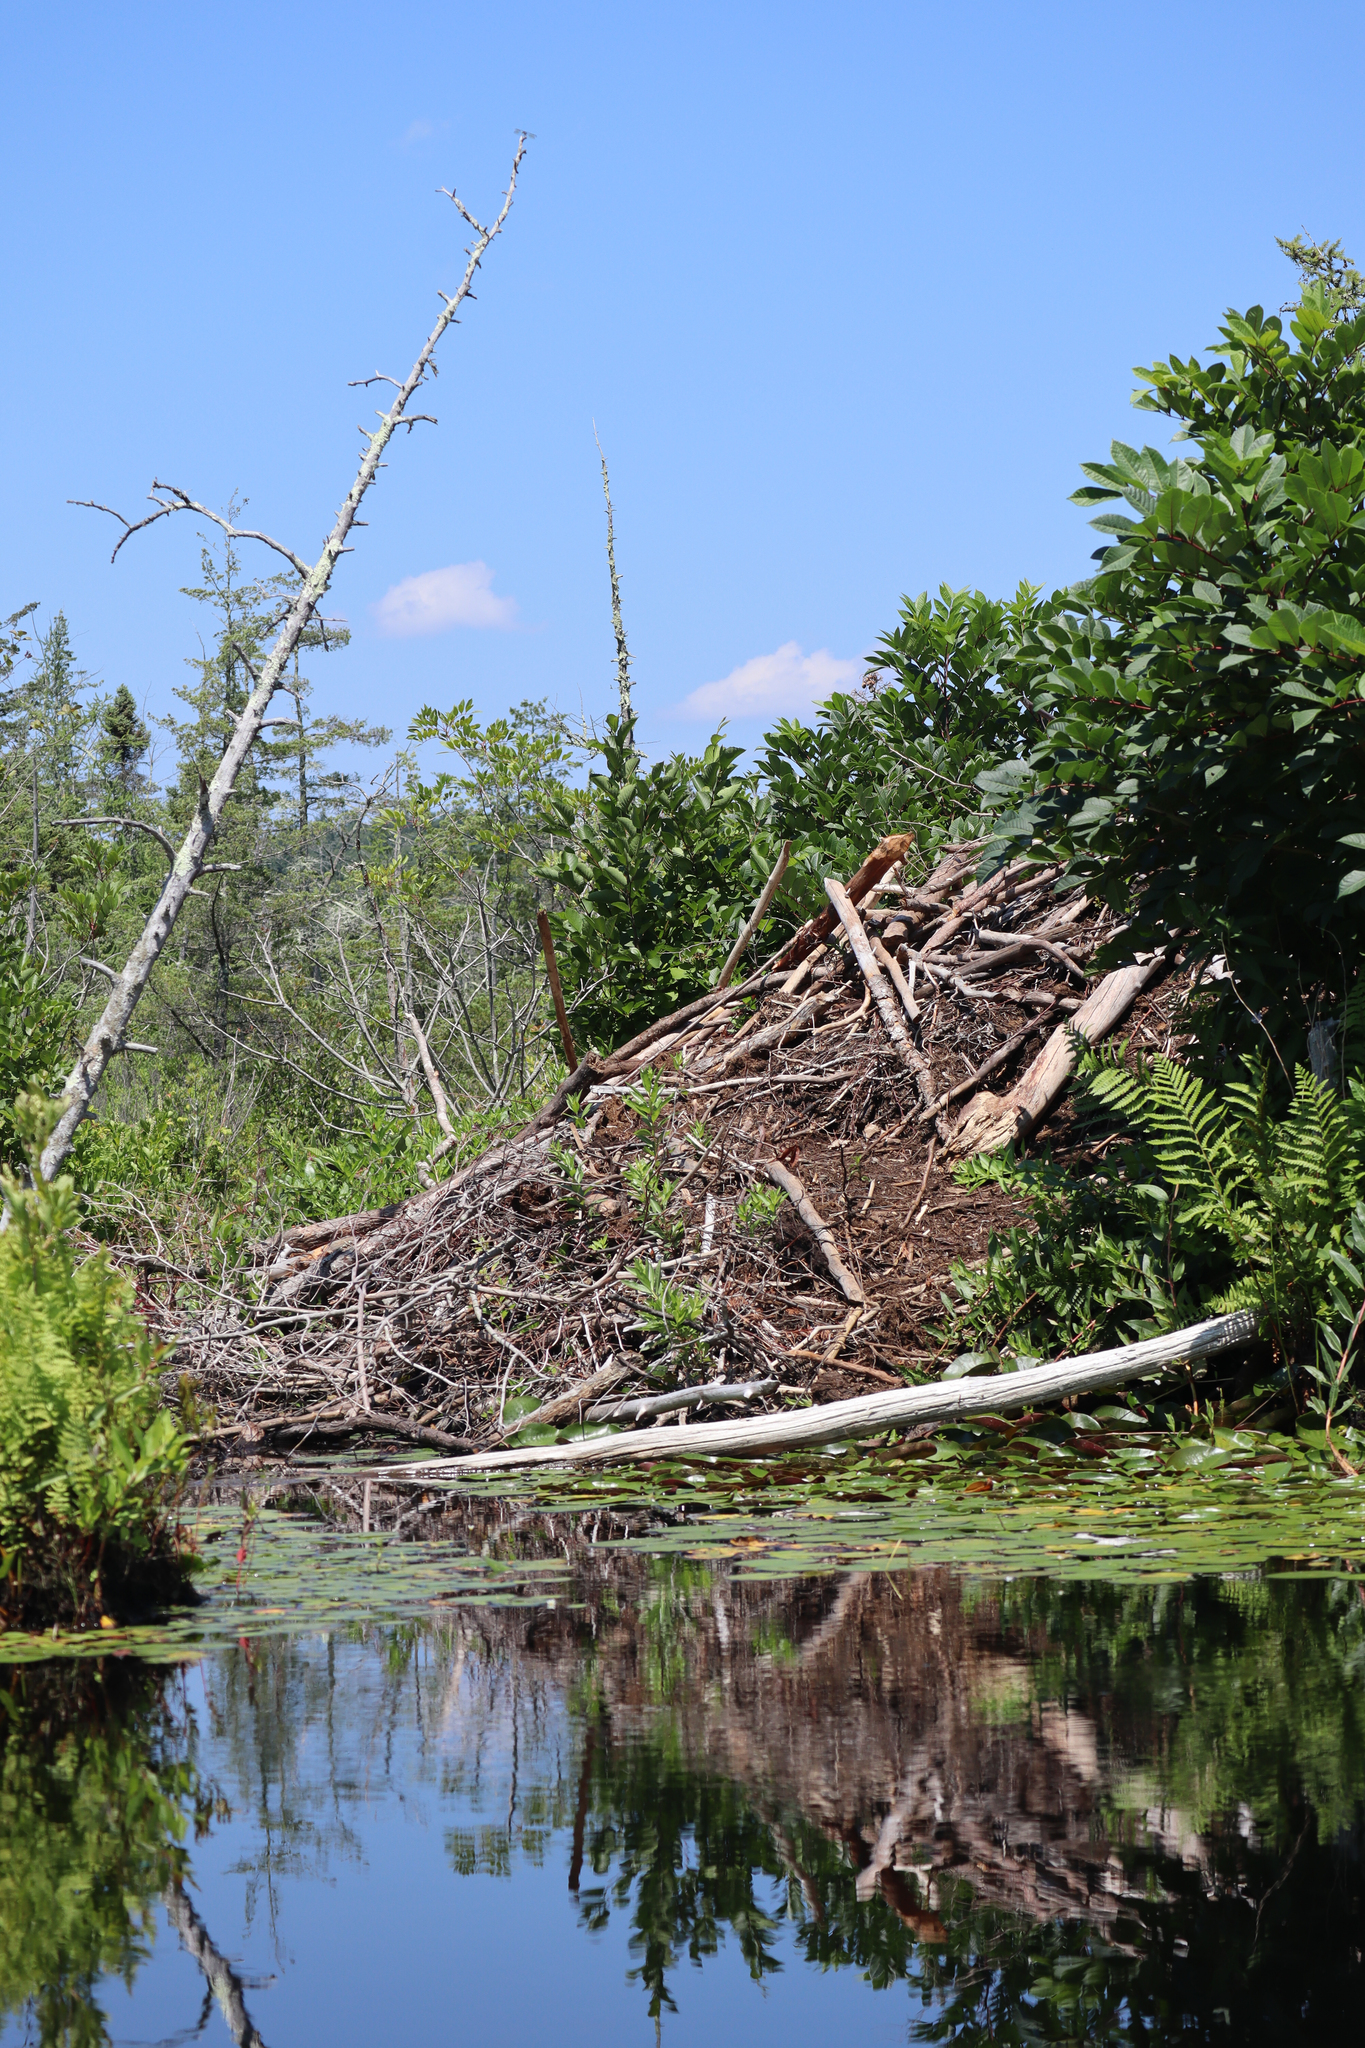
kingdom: Animalia
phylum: Chordata
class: Mammalia
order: Rodentia
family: Castoridae
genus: Castor
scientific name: Castor canadensis
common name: American beaver
